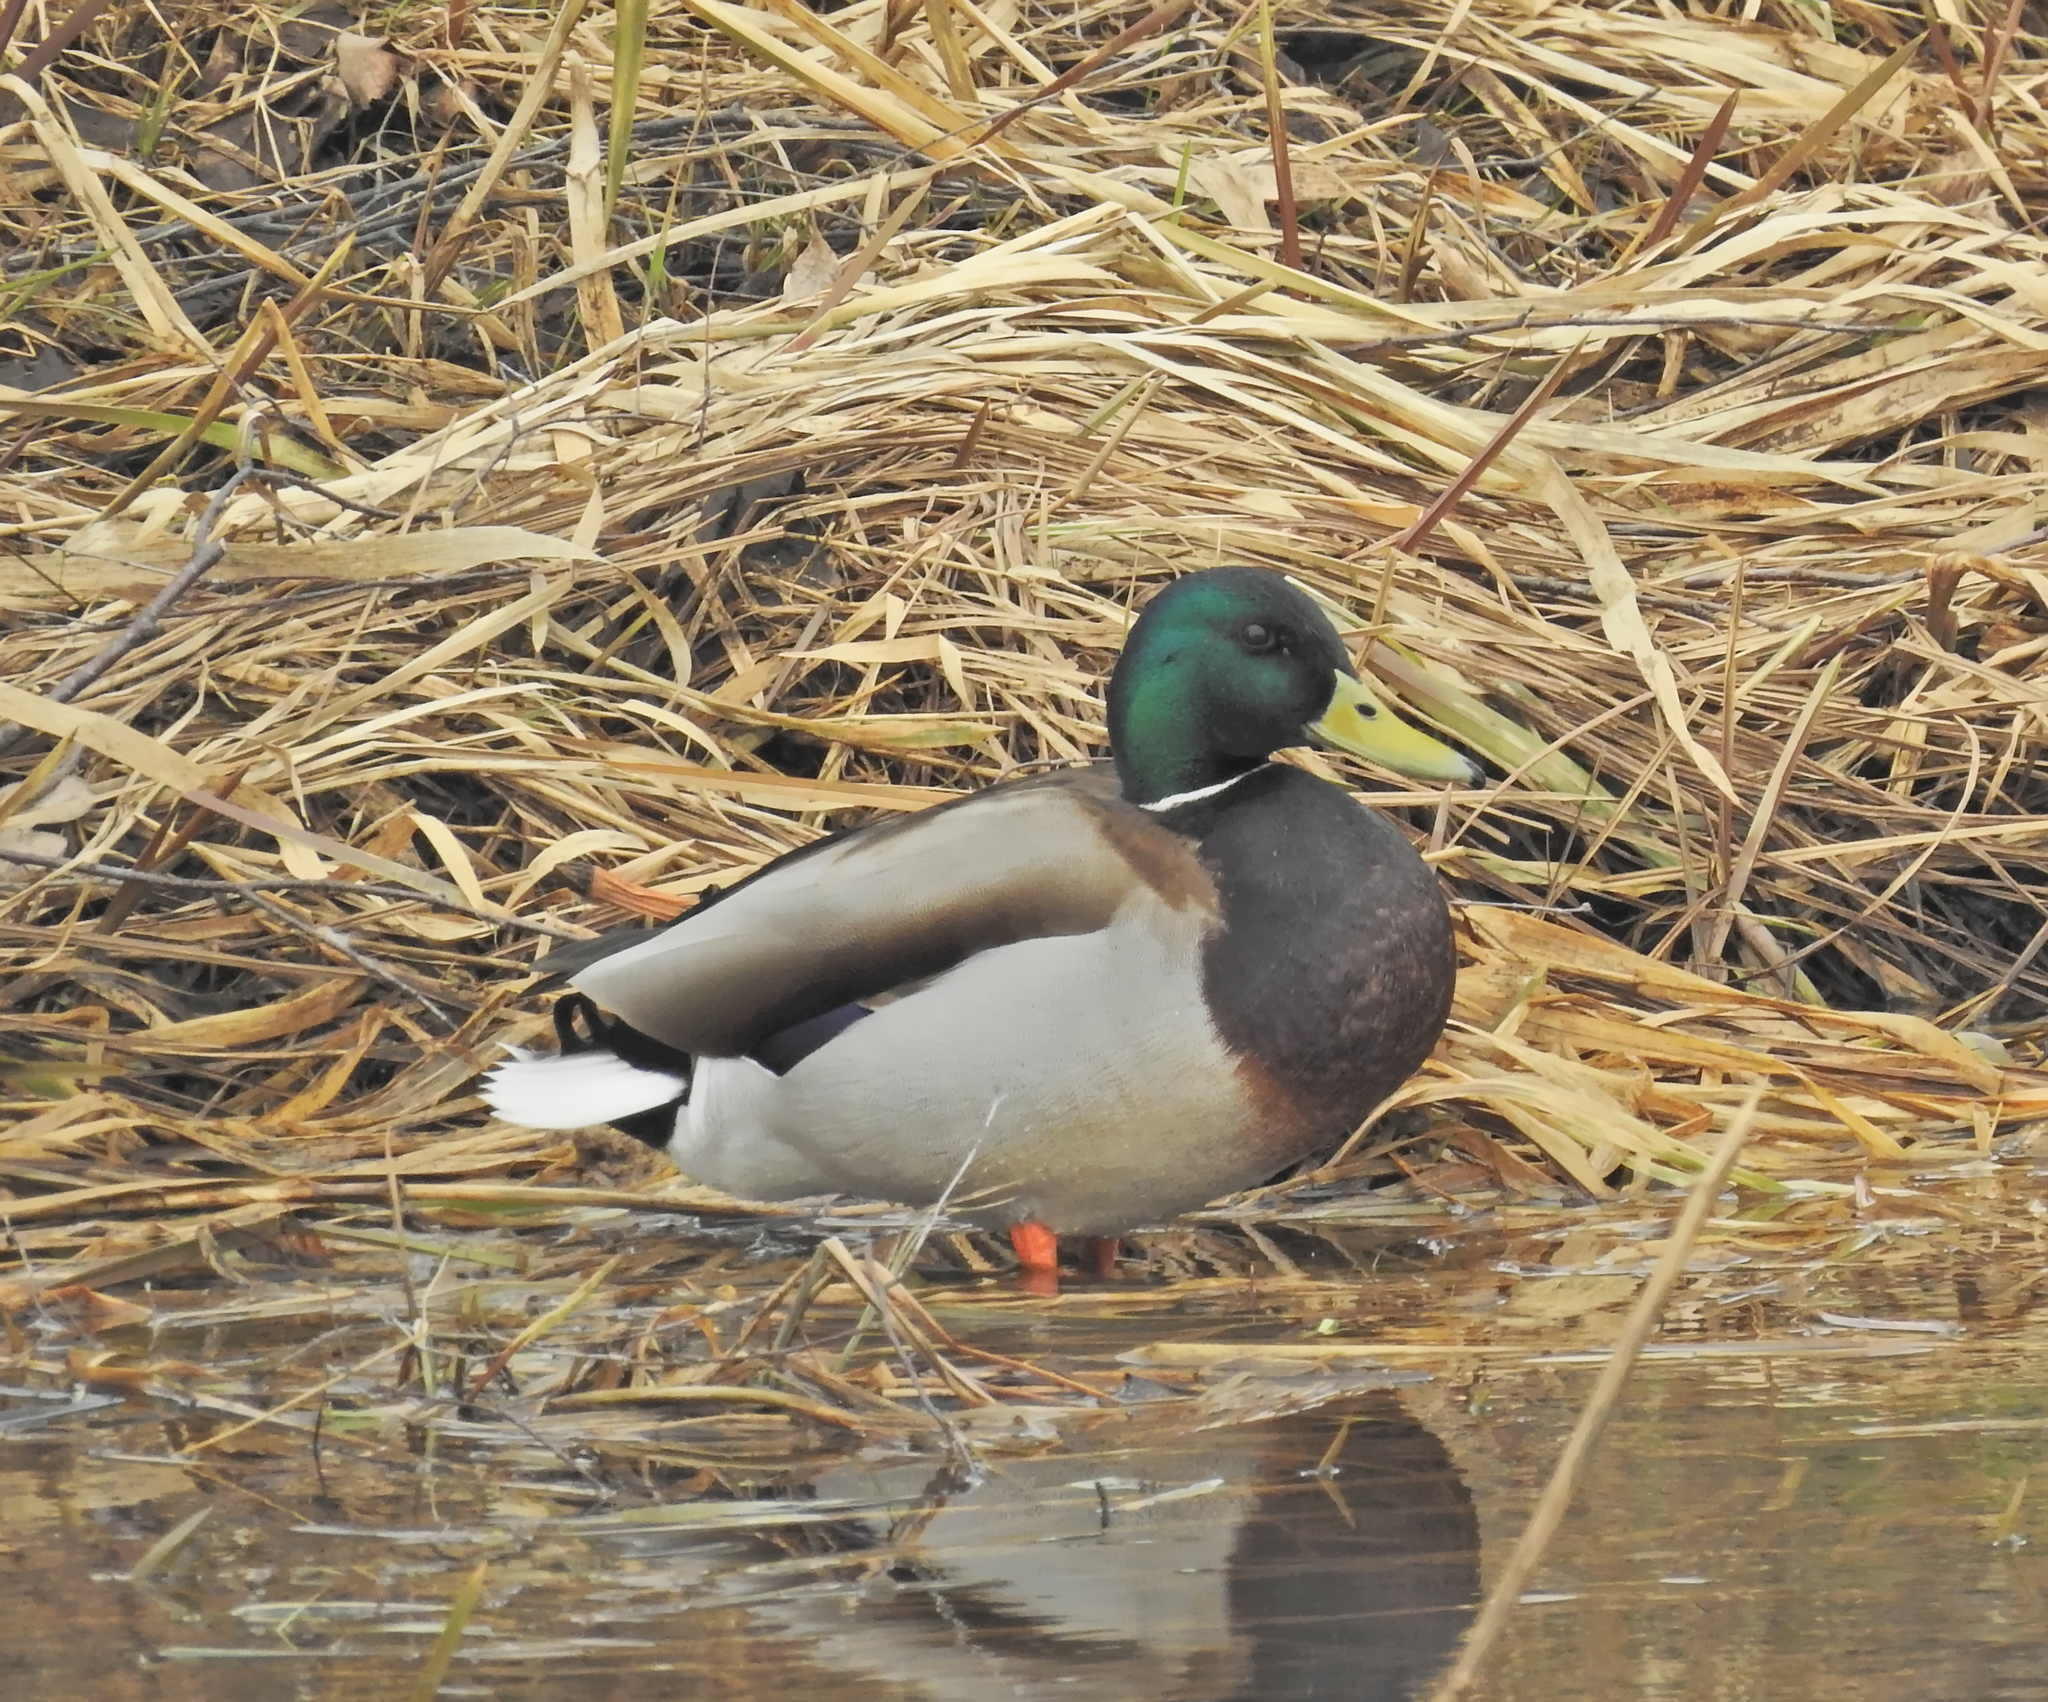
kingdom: Animalia
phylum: Chordata
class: Aves
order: Anseriformes
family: Anatidae
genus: Anas
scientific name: Anas platyrhynchos
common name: Mallard
